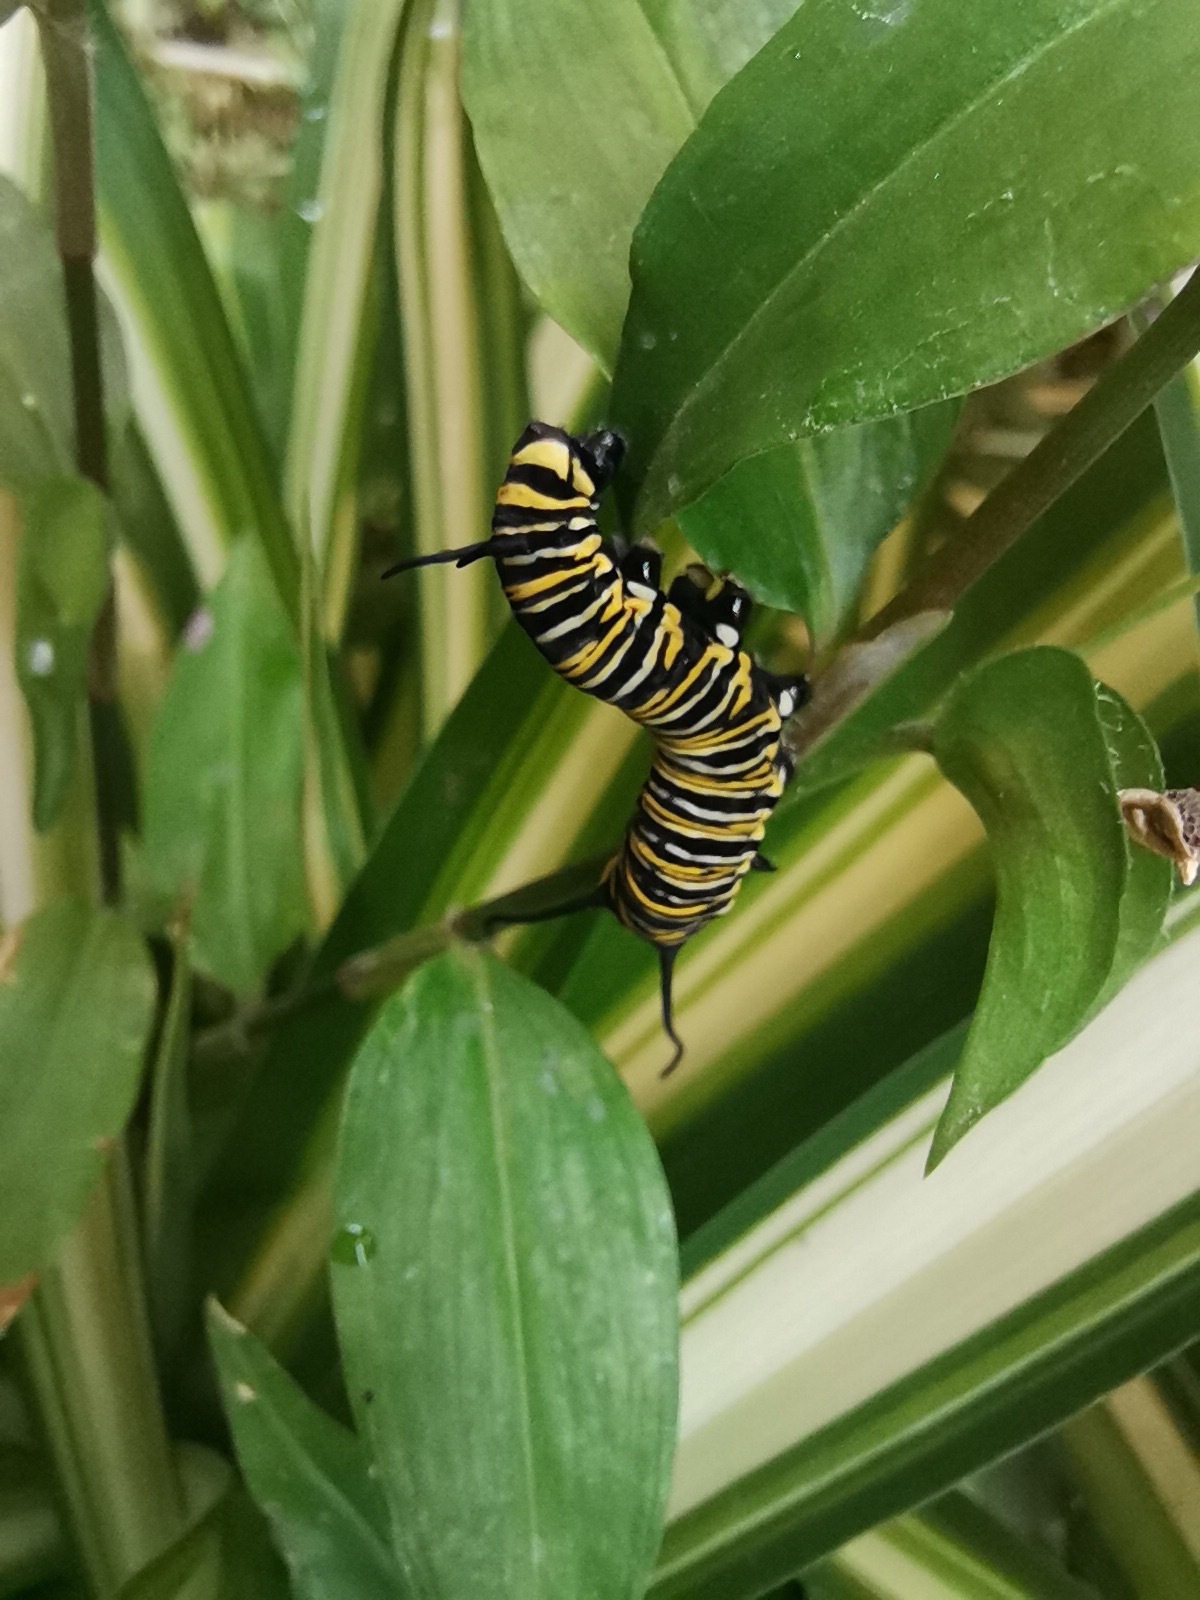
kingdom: Animalia
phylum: Arthropoda
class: Insecta
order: Lepidoptera
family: Nymphalidae
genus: Danaus
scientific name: Danaus plexippus
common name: Monarch
